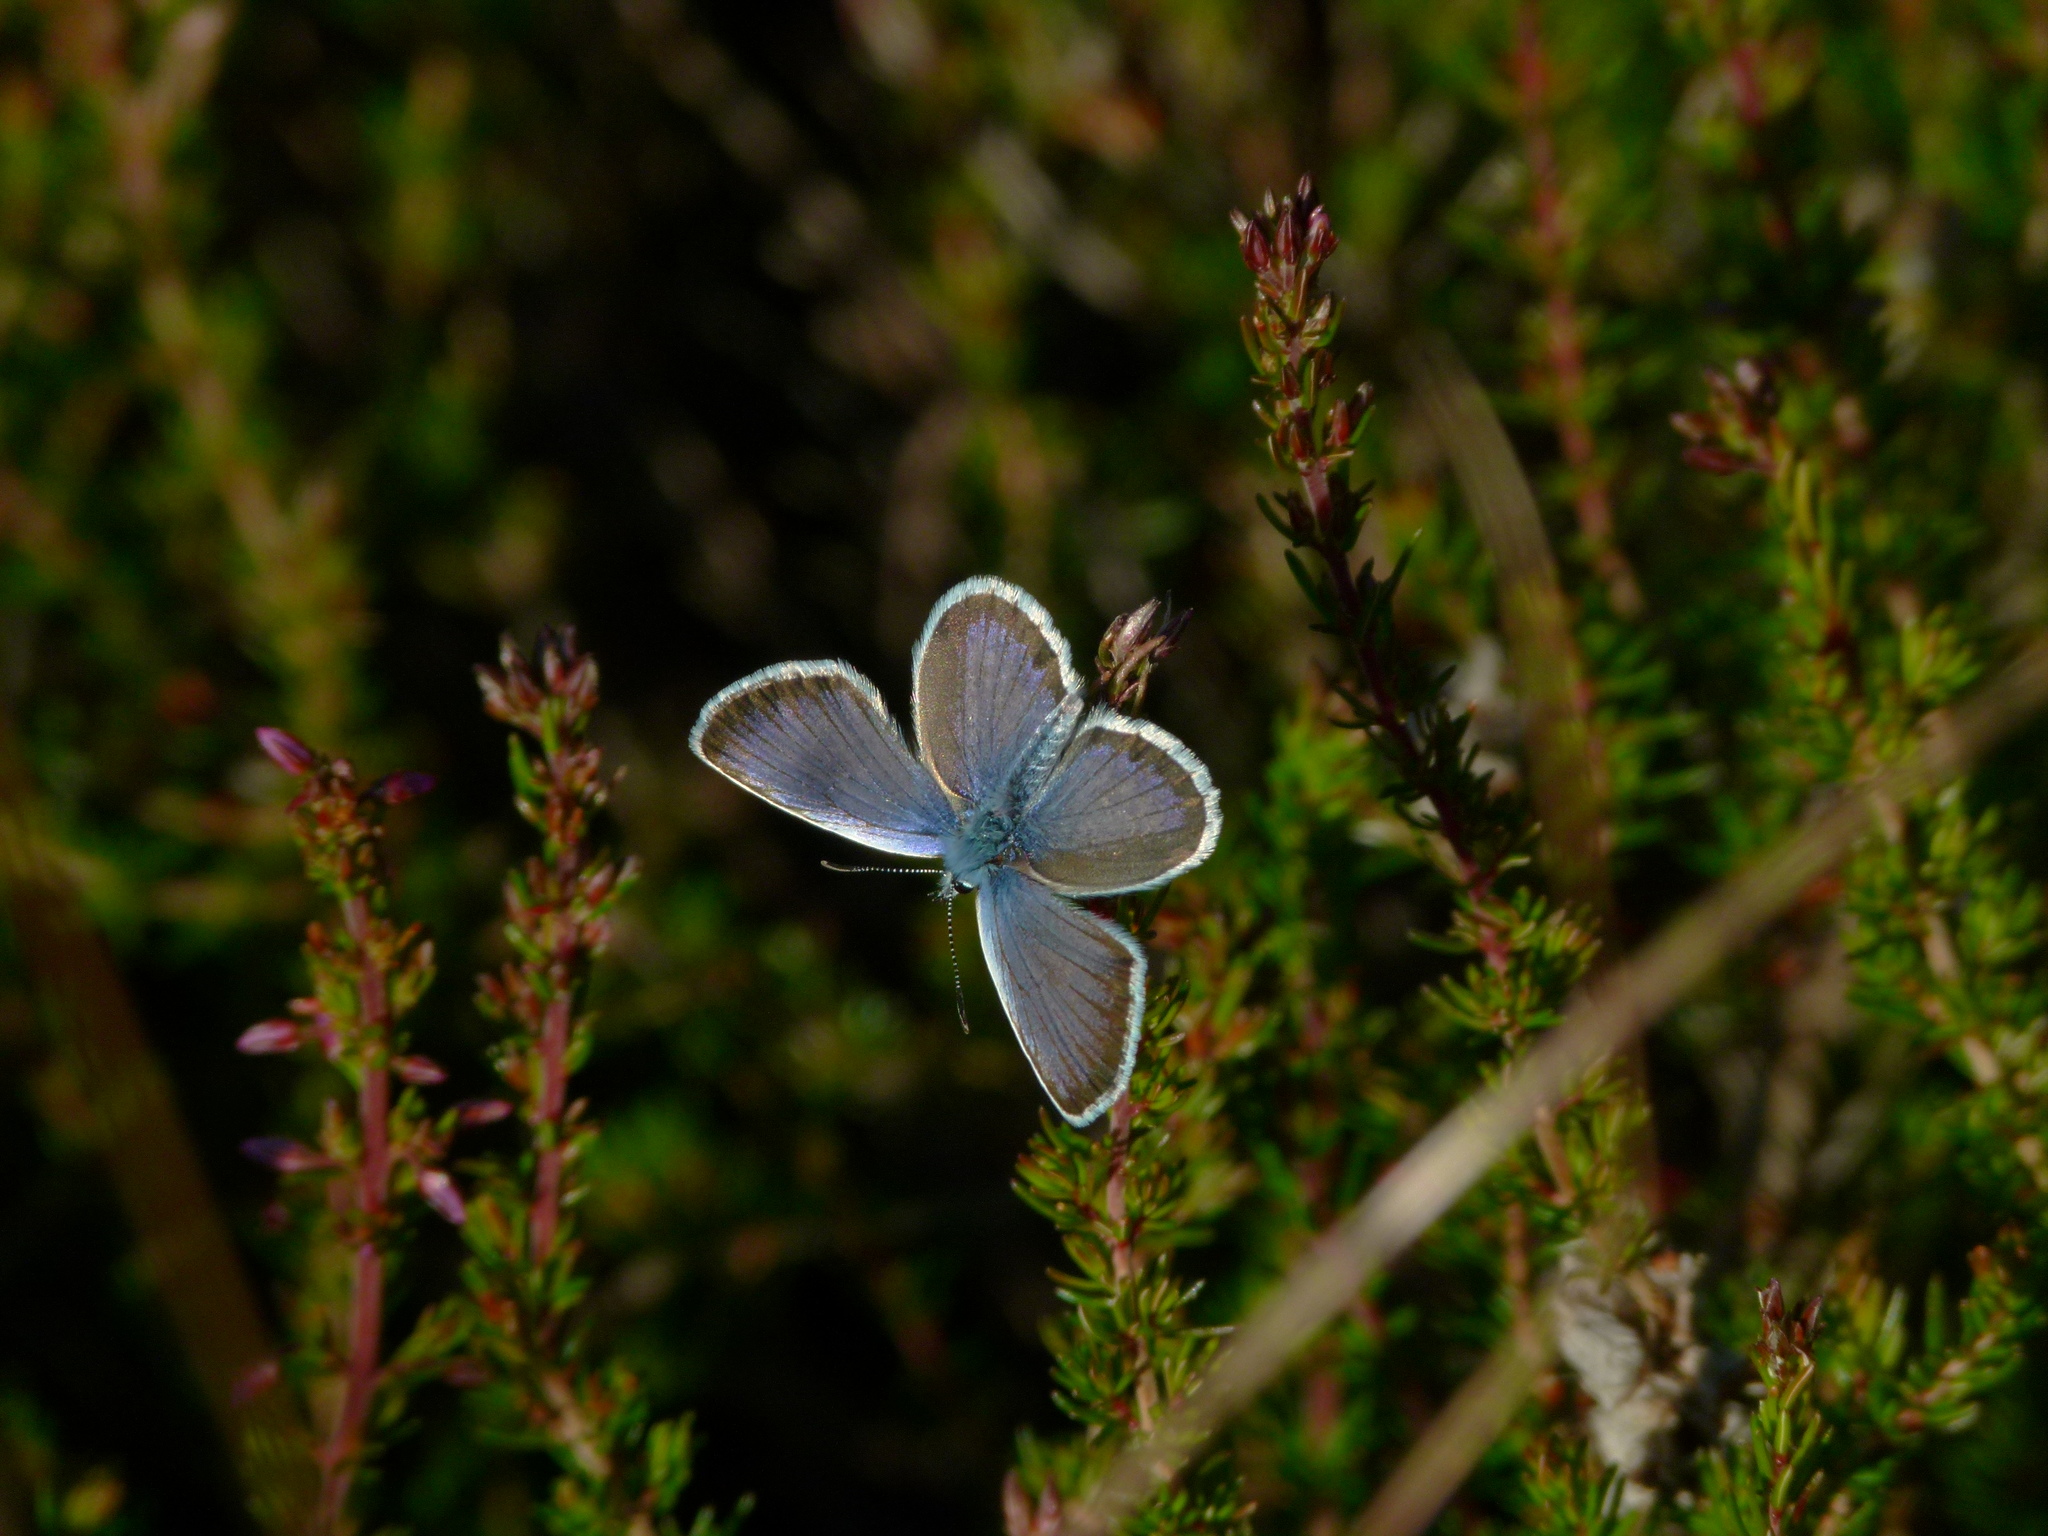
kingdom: Animalia
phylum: Arthropoda
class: Insecta
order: Lepidoptera
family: Lycaenidae
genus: Plebejus
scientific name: Plebejus argus
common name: Silver-studded blue
